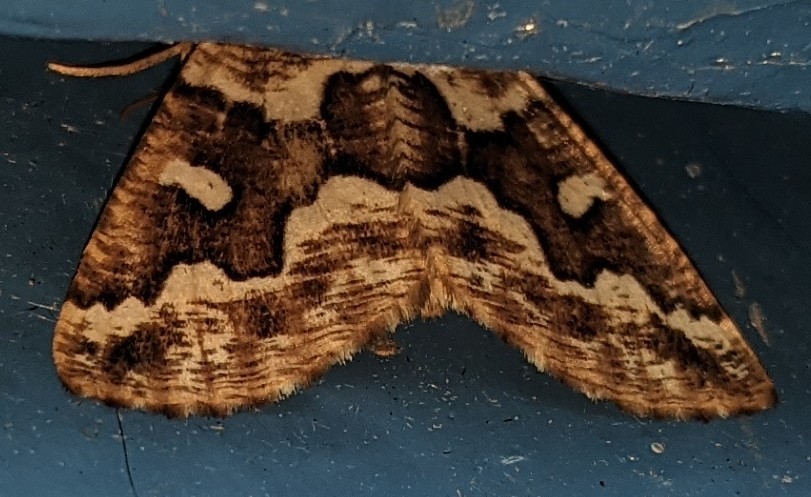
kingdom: Animalia
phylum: Arthropoda
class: Insecta
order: Lepidoptera
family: Geometridae
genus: Caripeta
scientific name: Caripeta divisata
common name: Gray spruce looper
